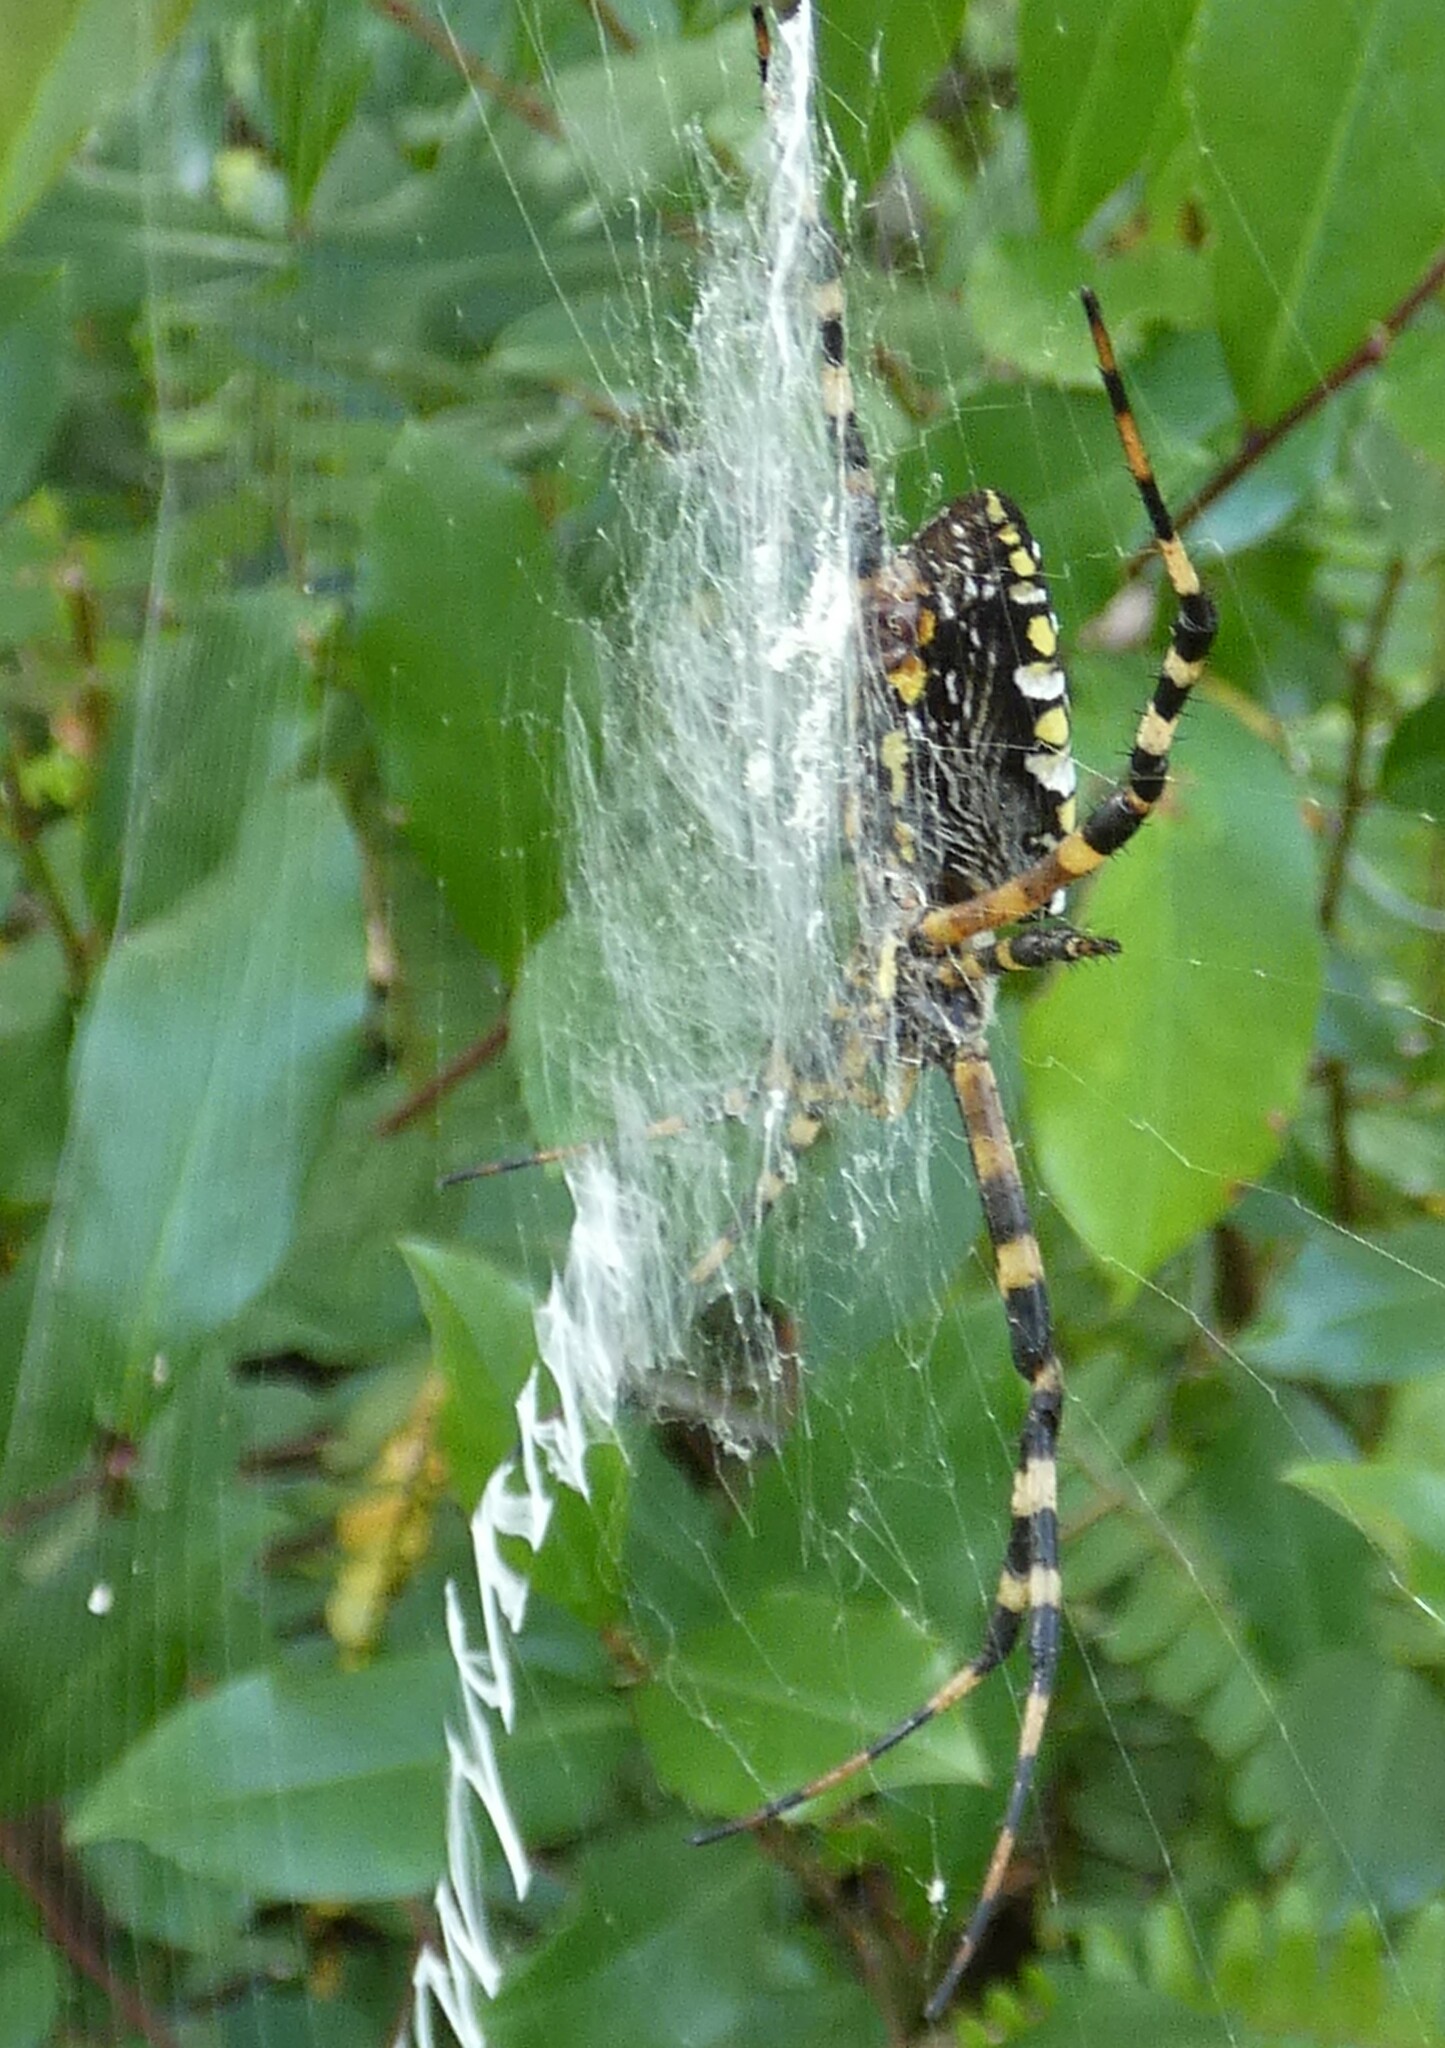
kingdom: Animalia
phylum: Arthropoda
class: Arachnida
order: Araneae
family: Araneidae
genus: Argiope
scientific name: Argiope aurantia
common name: Orb weavers
